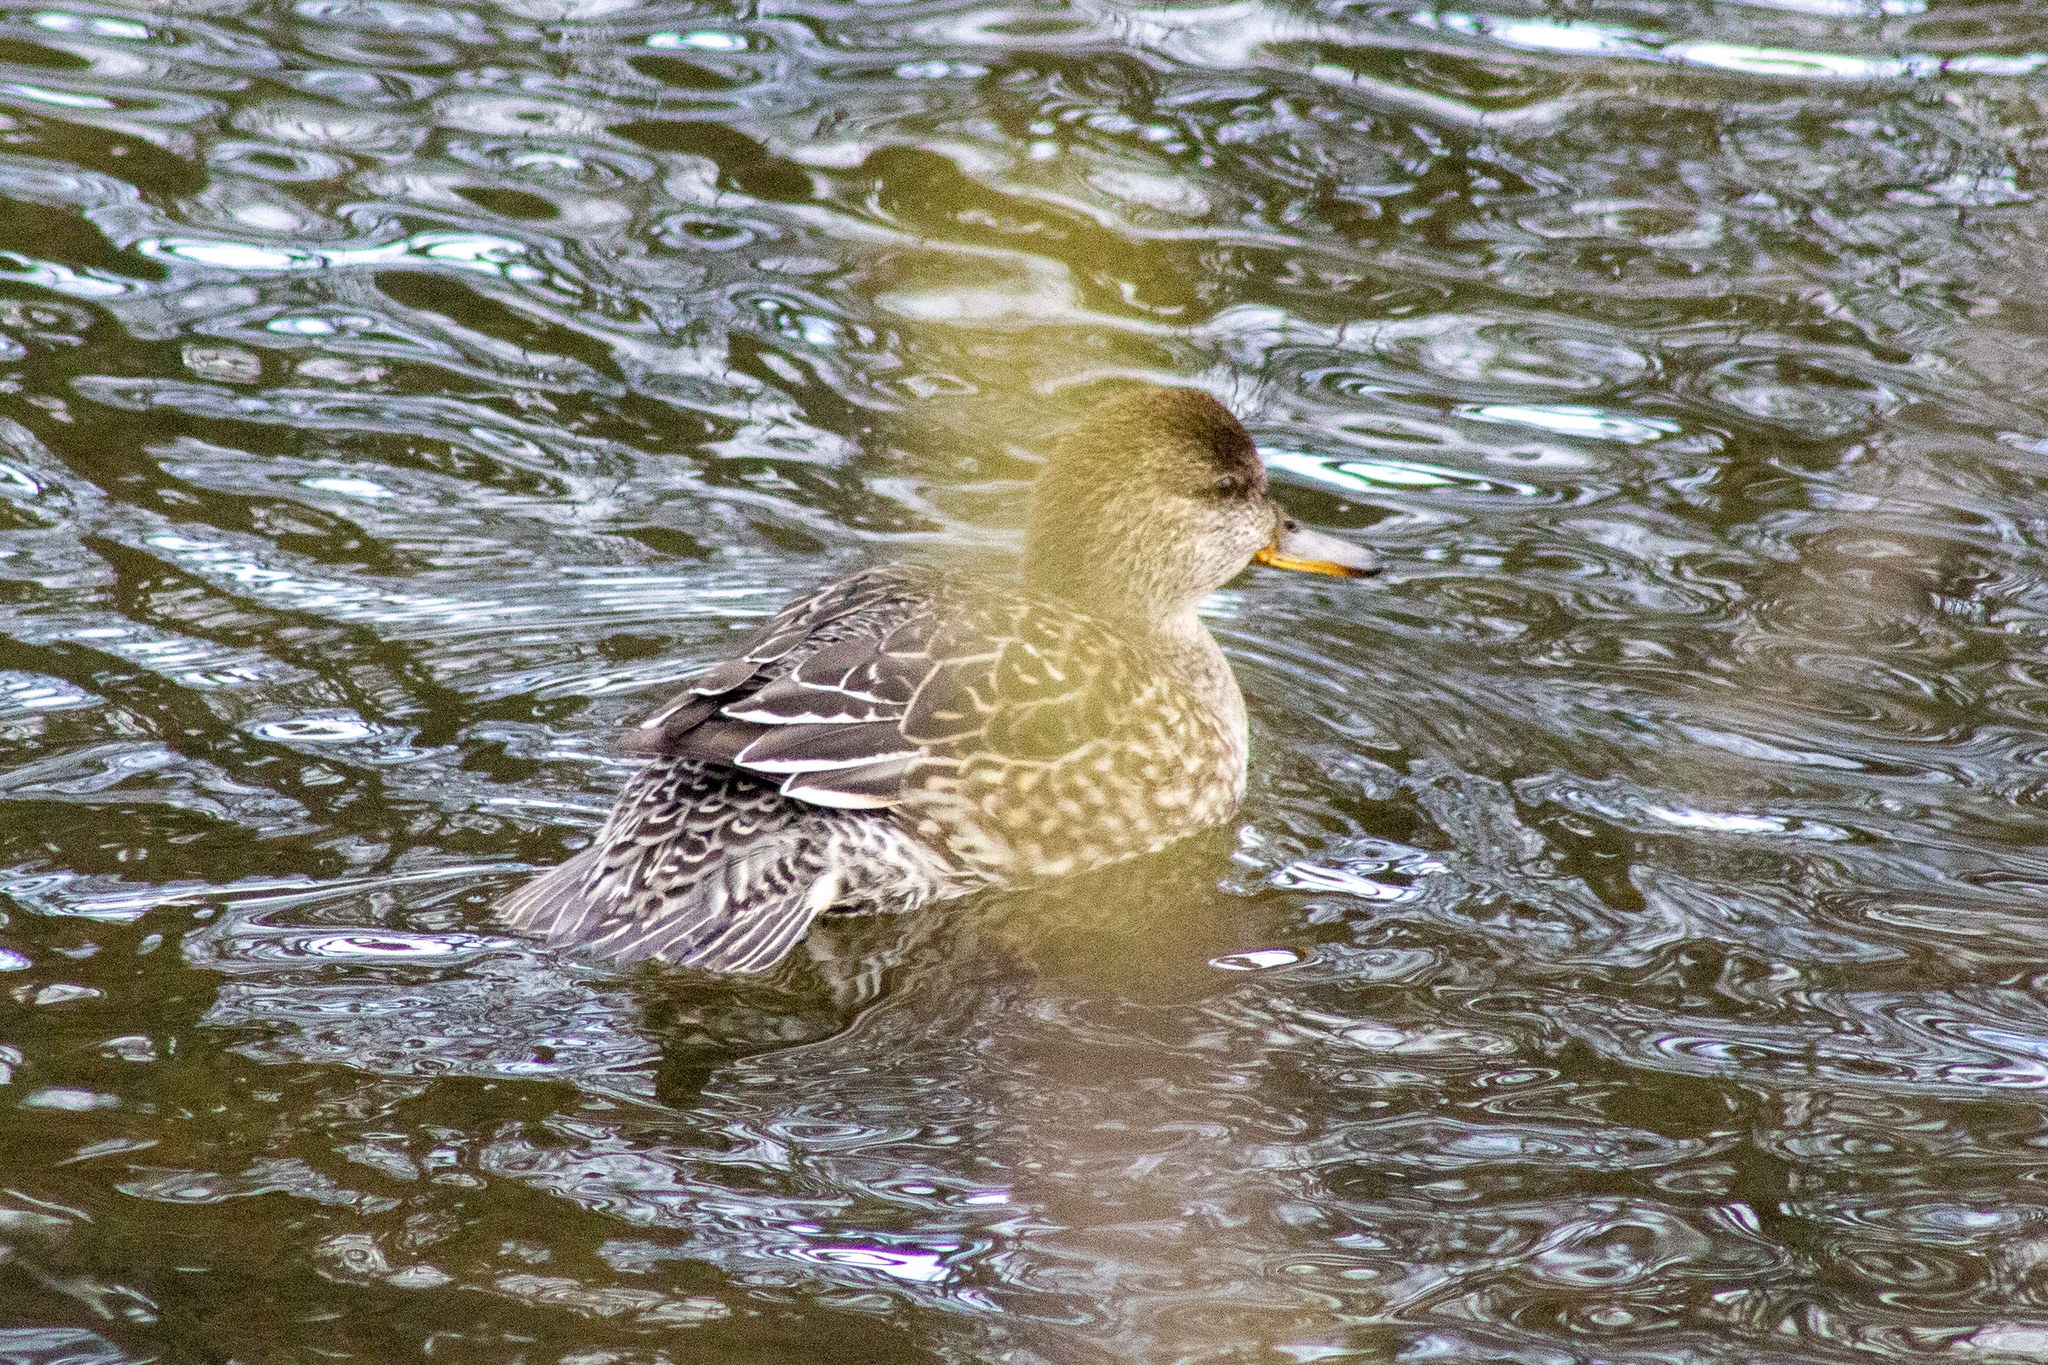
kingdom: Animalia
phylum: Chordata
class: Aves
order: Anseriformes
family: Anatidae
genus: Anas
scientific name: Anas crecca
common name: Eurasian teal
